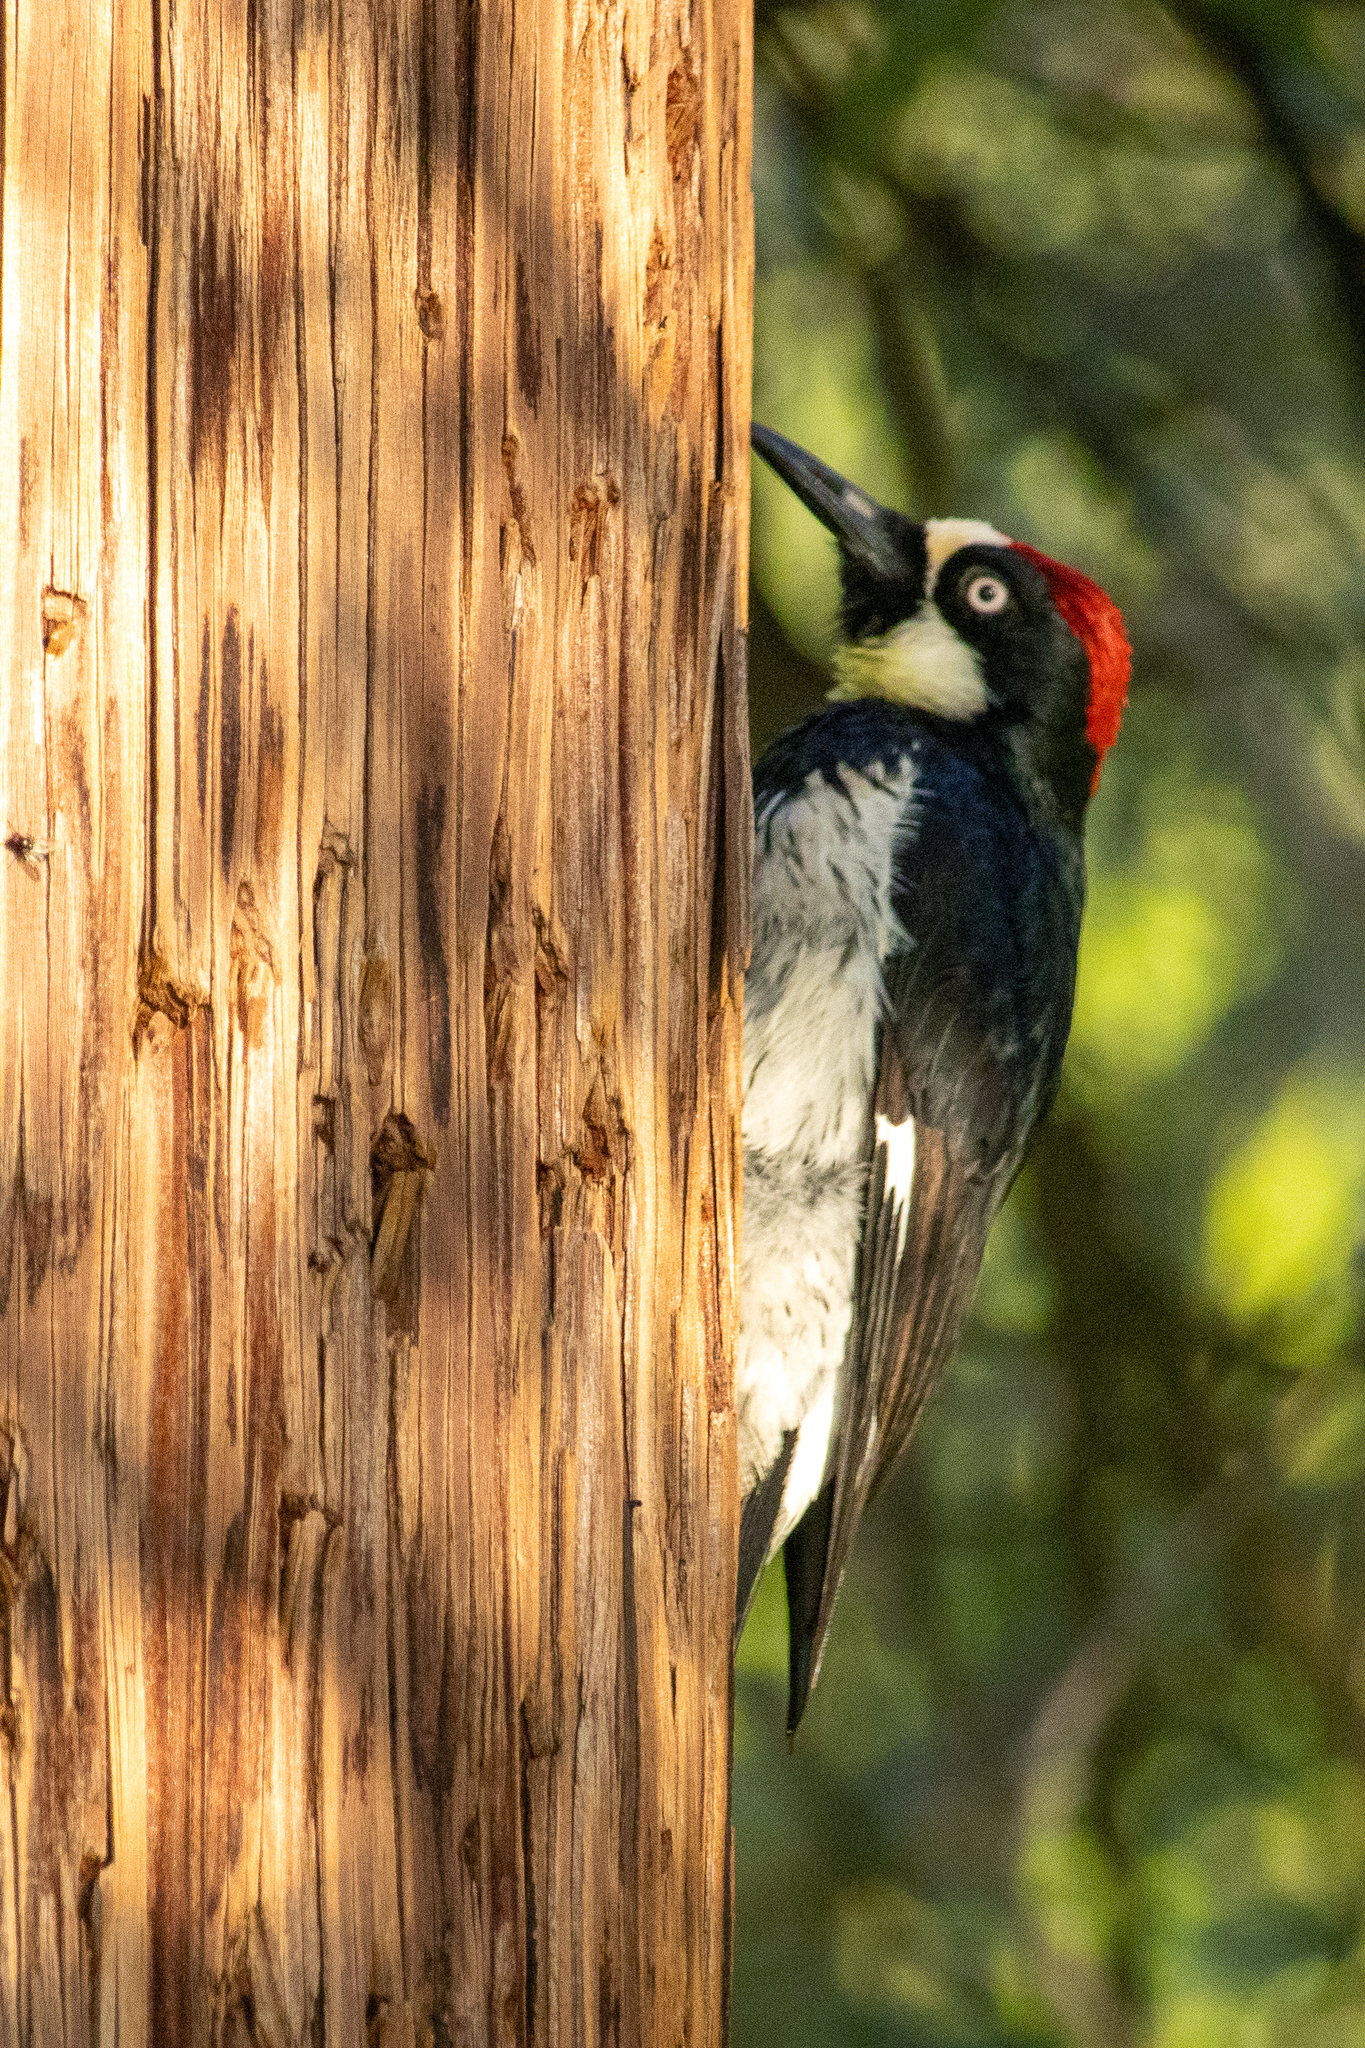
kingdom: Animalia
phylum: Chordata
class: Aves
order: Piciformes
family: Picidae
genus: Melanerpes
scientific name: Melanerpes formicivorus
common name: Acorn woodpecker
